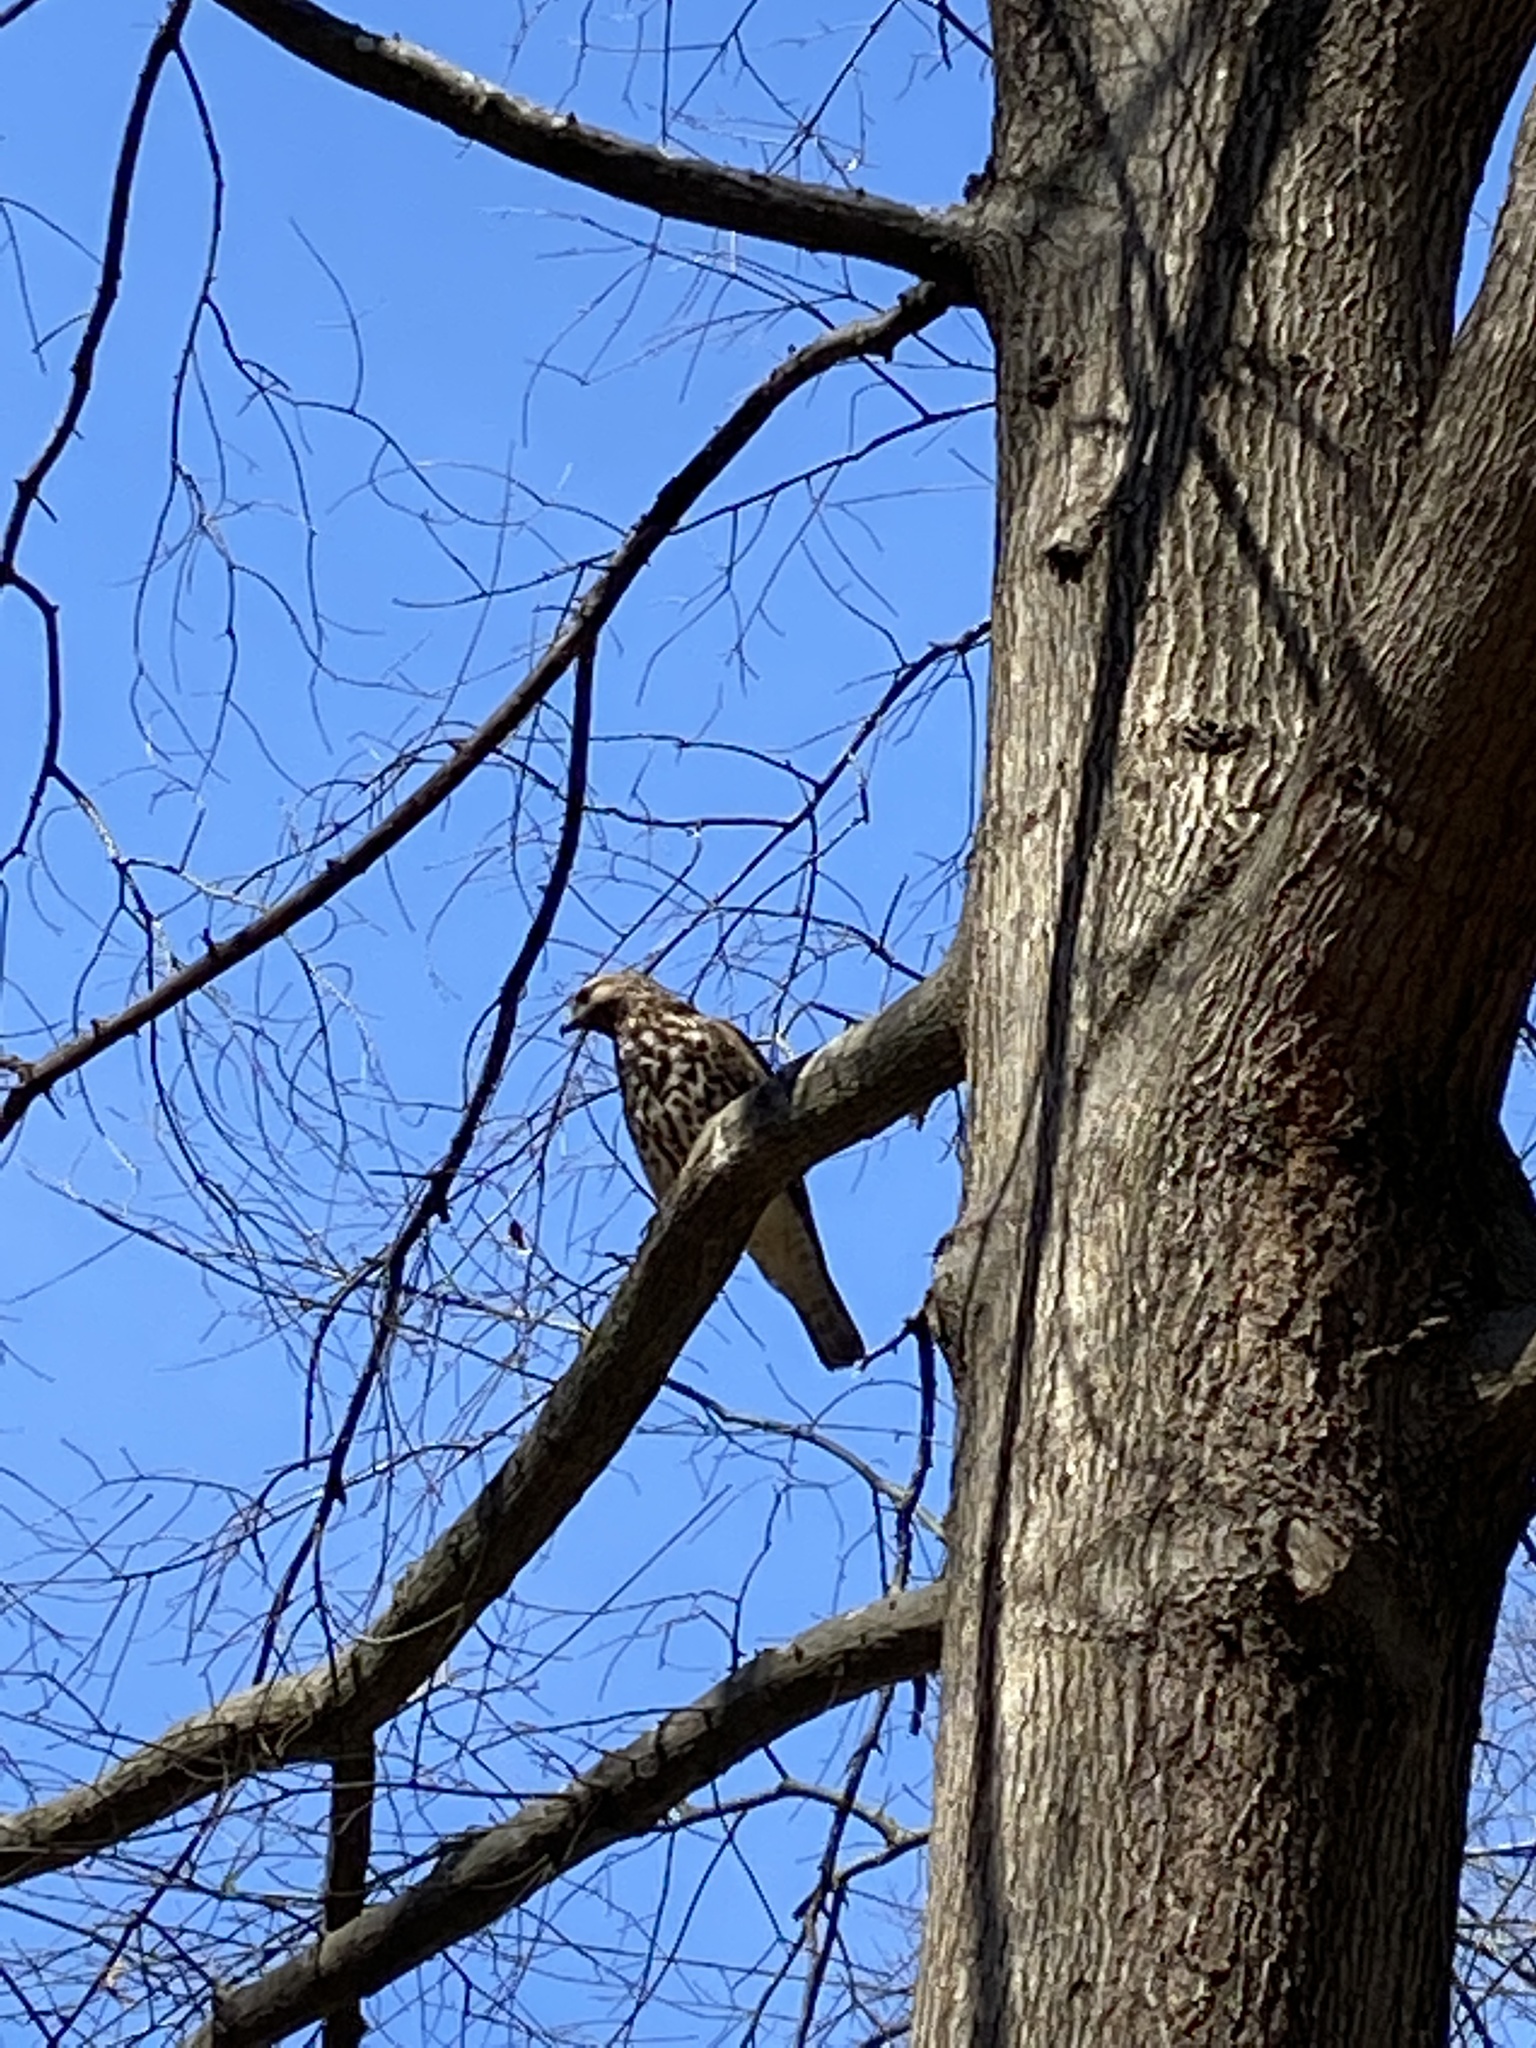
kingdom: Animalia
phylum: Chordata
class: Aves
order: Accipitriformes
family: Accipitridae
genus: Buteo
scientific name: Buteo lineatus
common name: Red-shouldered hawk
